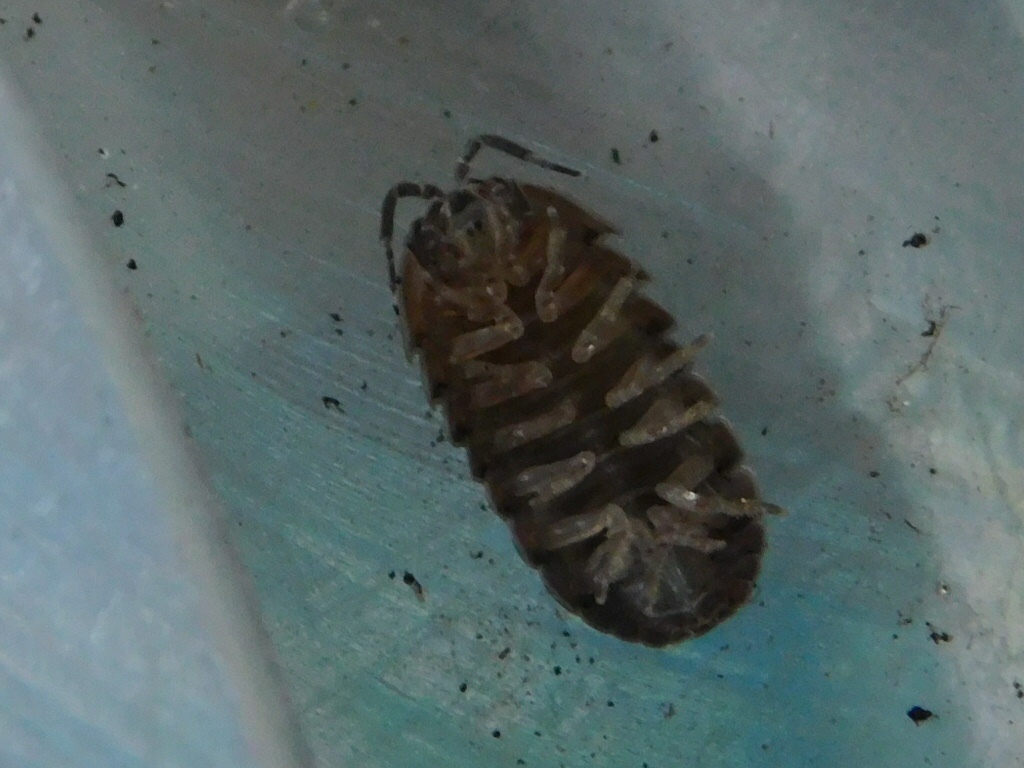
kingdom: Animalia
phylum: Arthropoda
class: Malacostraca
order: Isopoda
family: Armadillidiidae
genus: Armadillidium
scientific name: Armadillidium vulgare
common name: Common pill woodlouse
